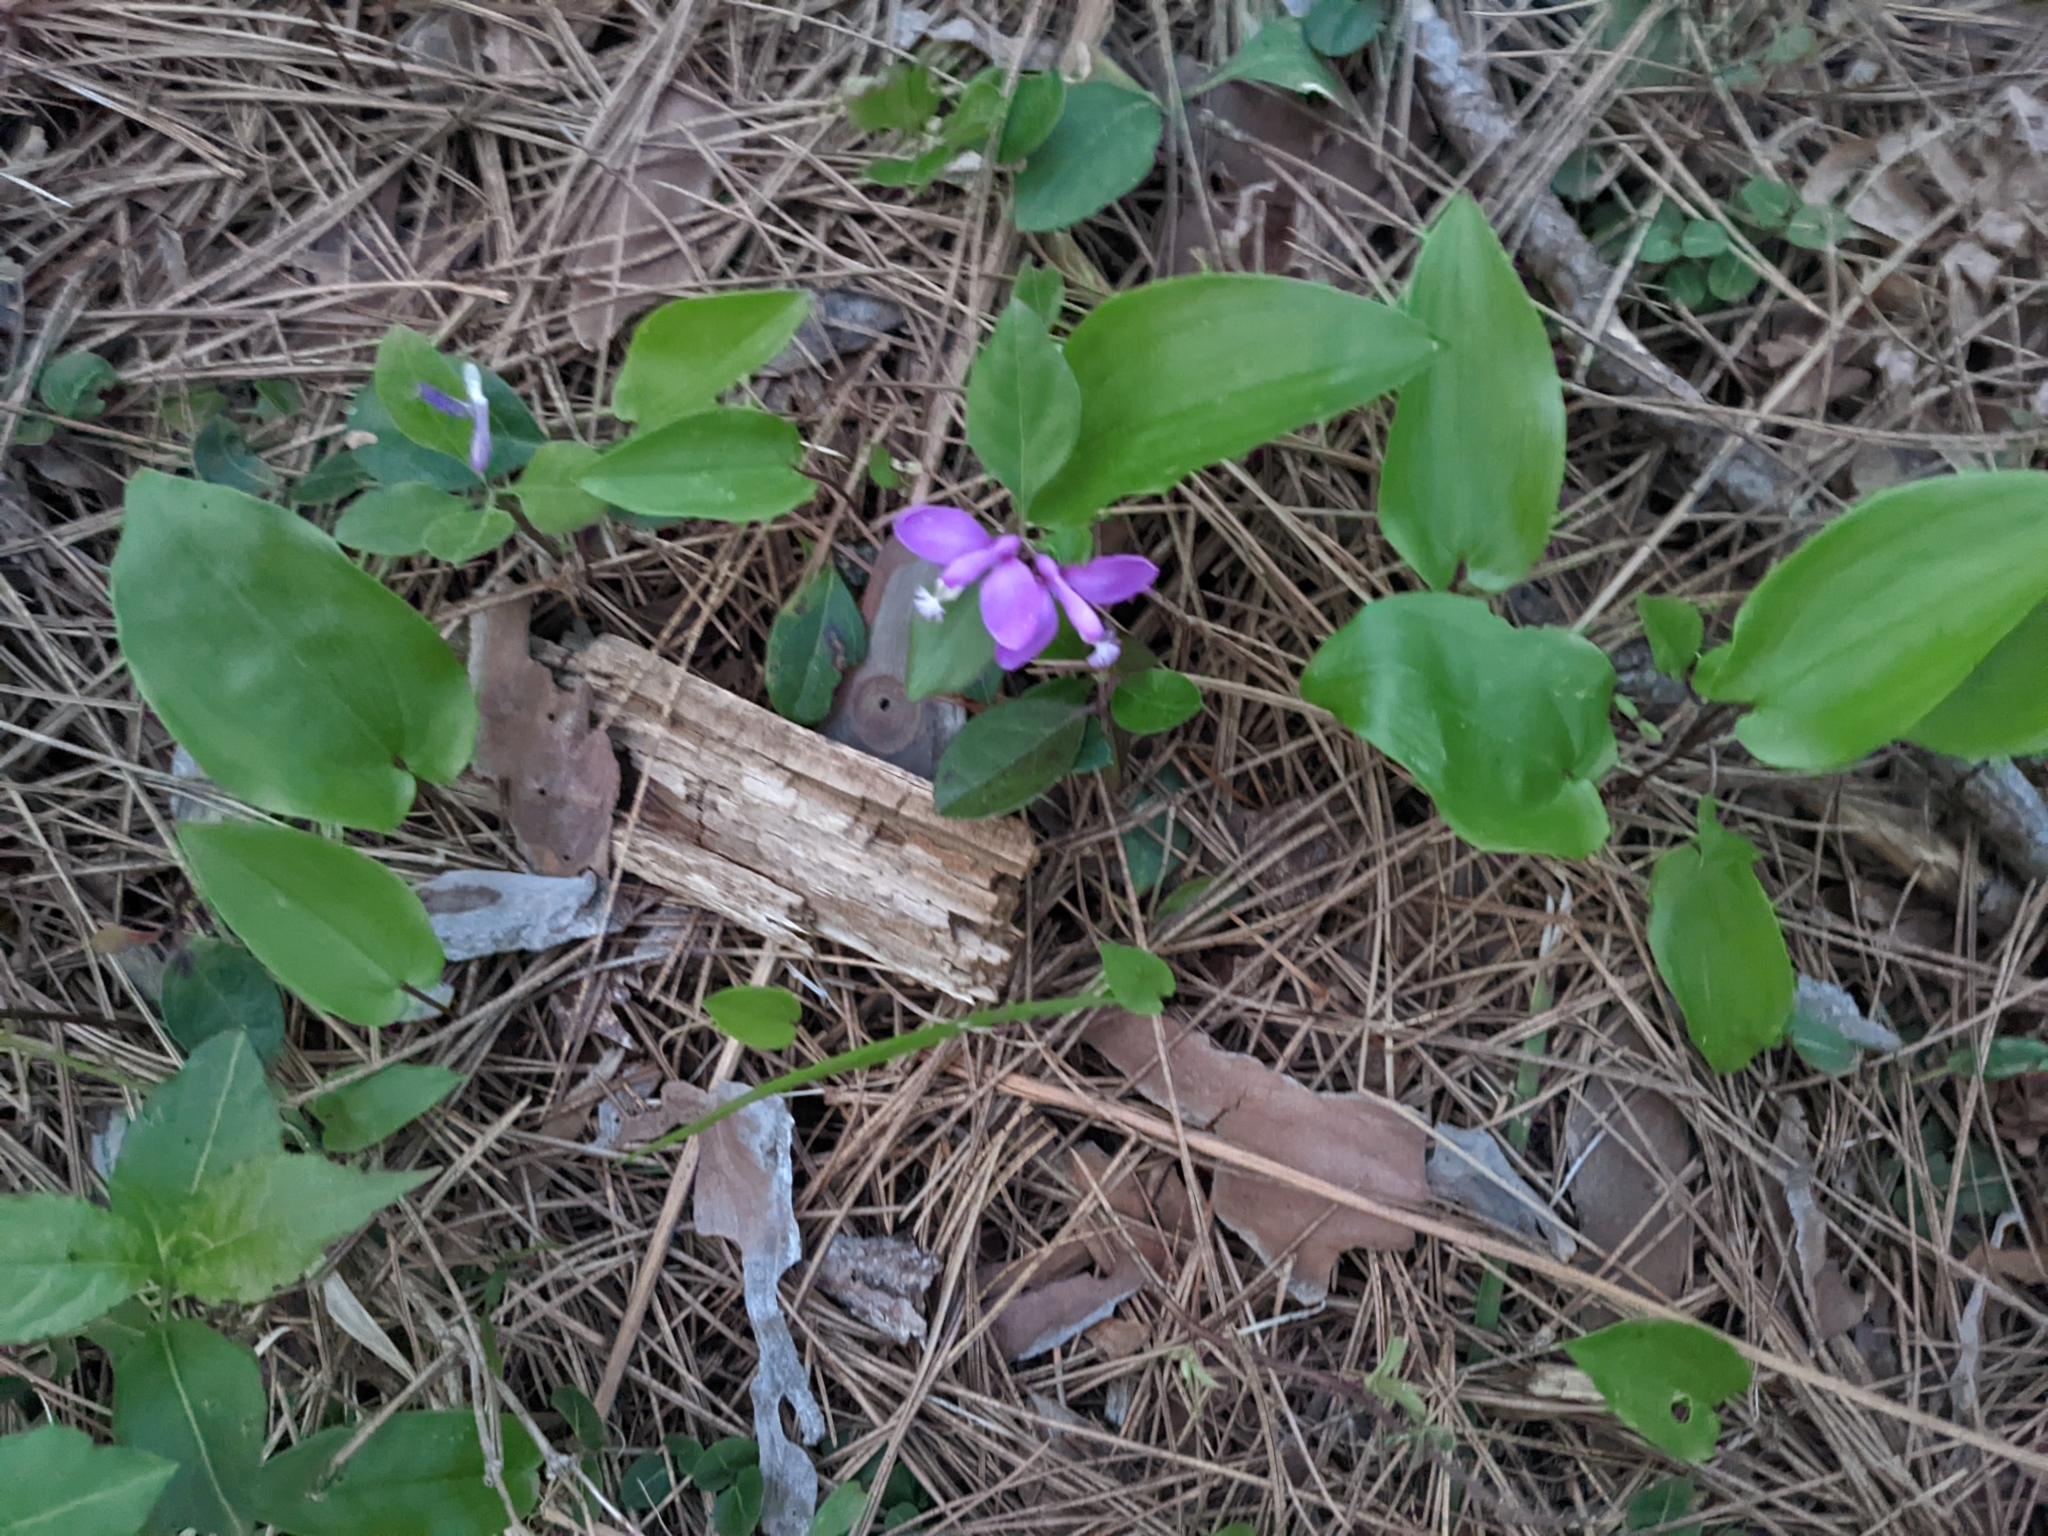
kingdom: Plantae
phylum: Tracheophyta
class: Magnoliopsida
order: Fabales
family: Polygalaceae
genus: Polygaloides
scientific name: Polygaloides paucifolia
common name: Bird-on-the-wing
